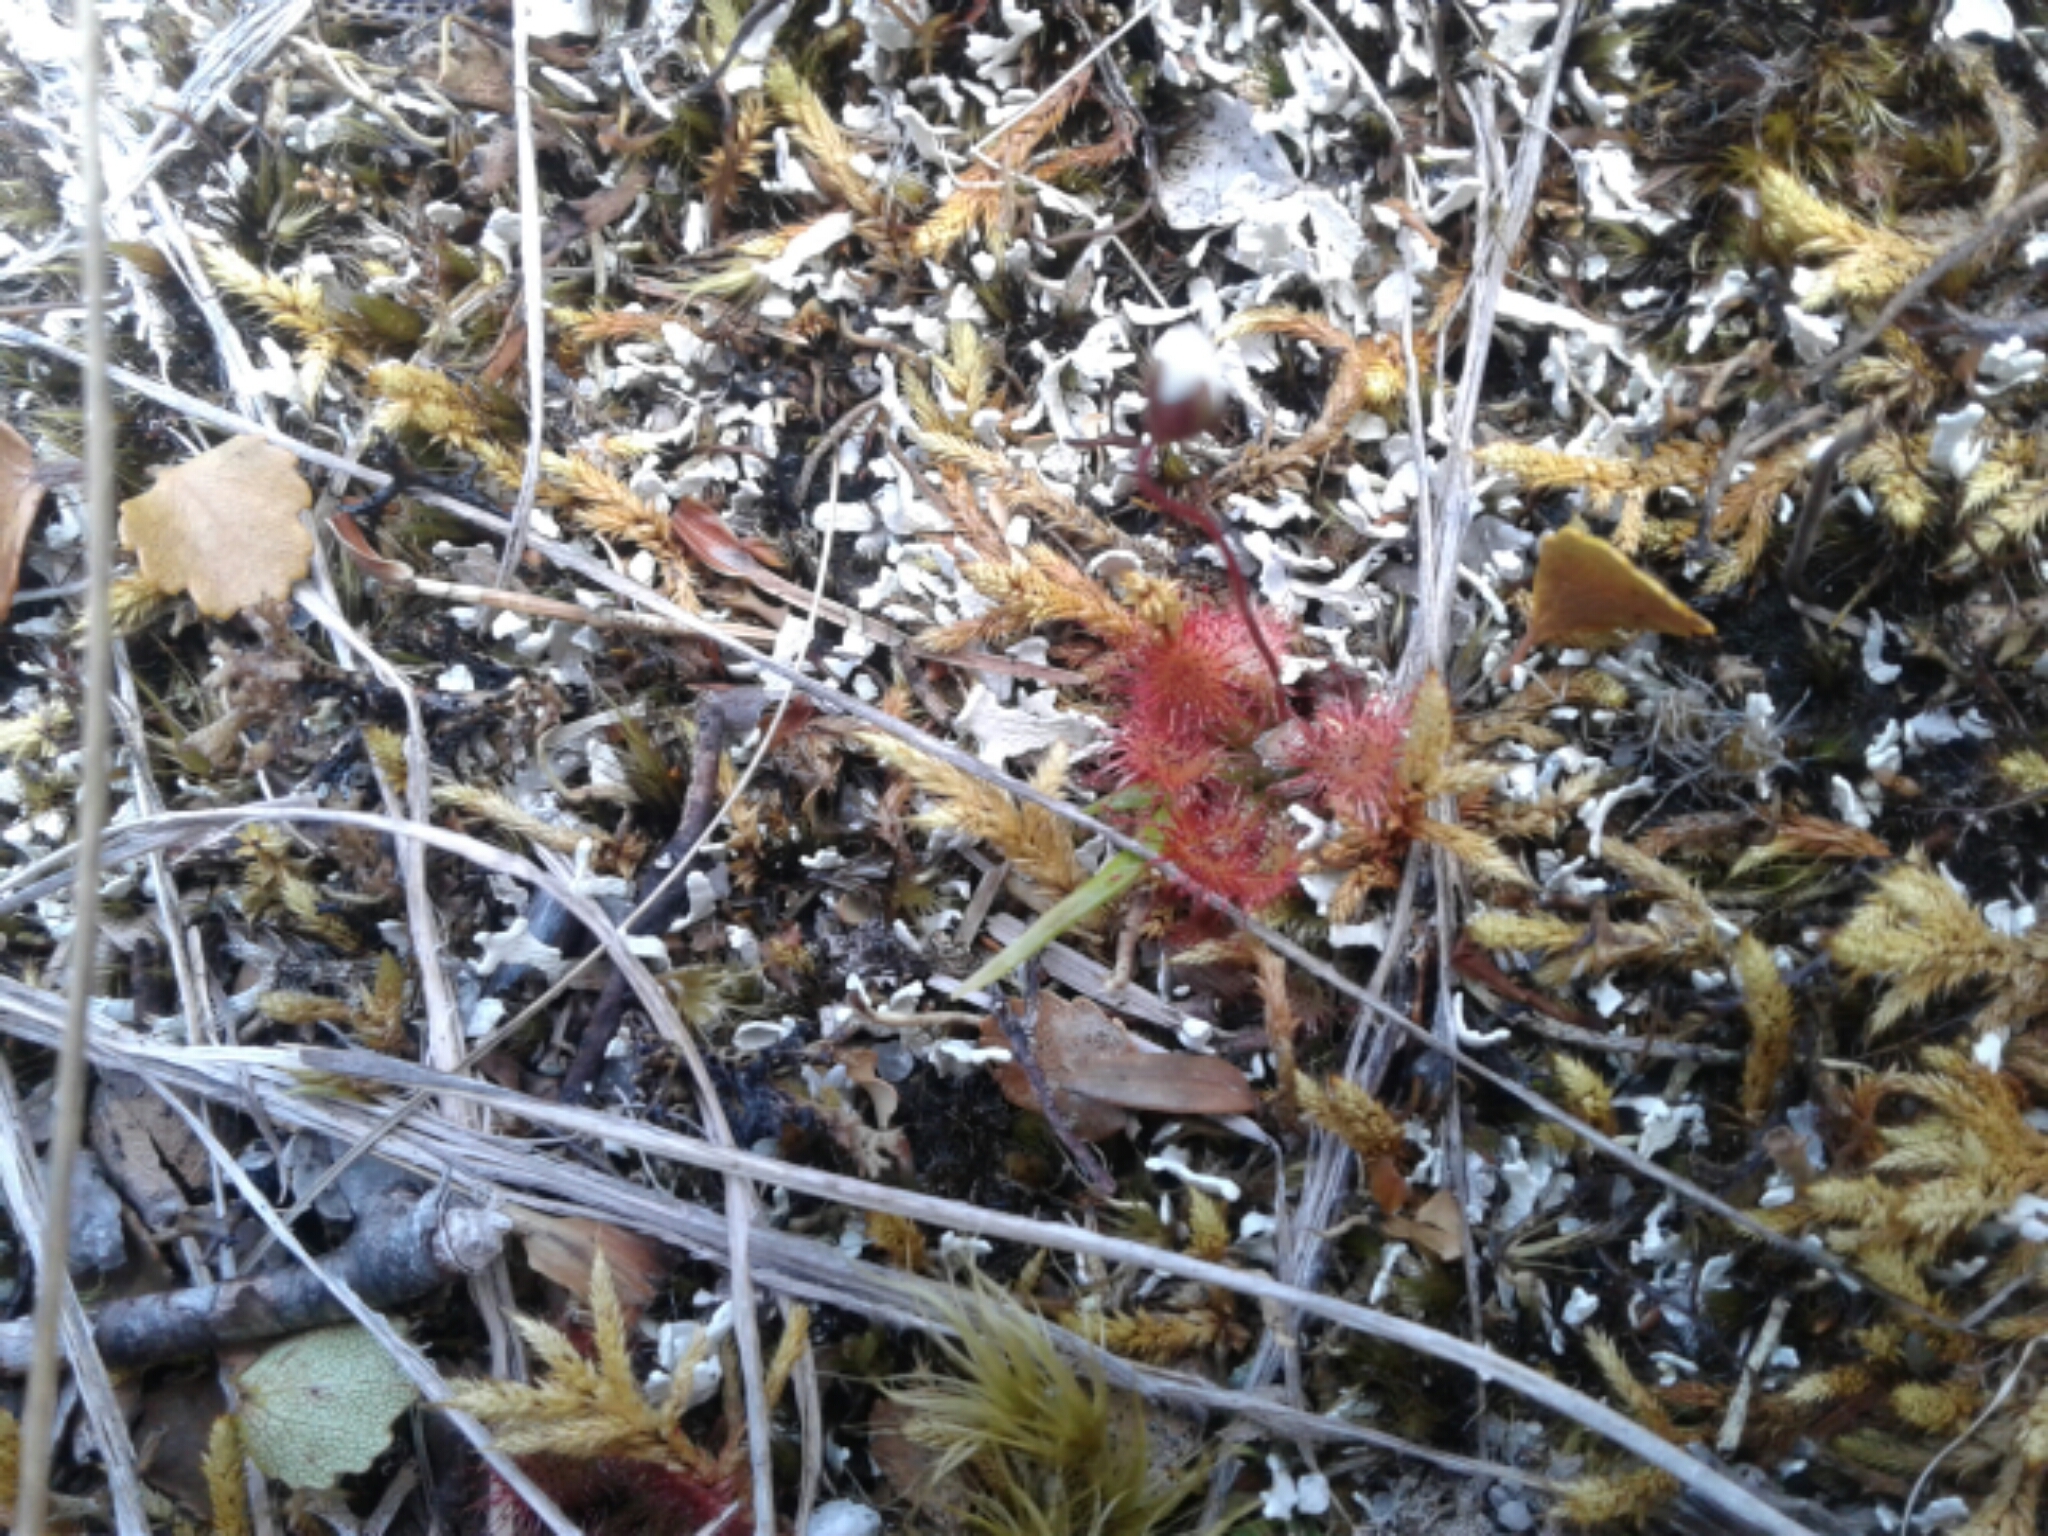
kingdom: Plantae
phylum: Tracheophyta
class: Magnoliopsida
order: Caryophyllales
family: Droseraceae
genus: Drosera
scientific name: Drosera spatulata
